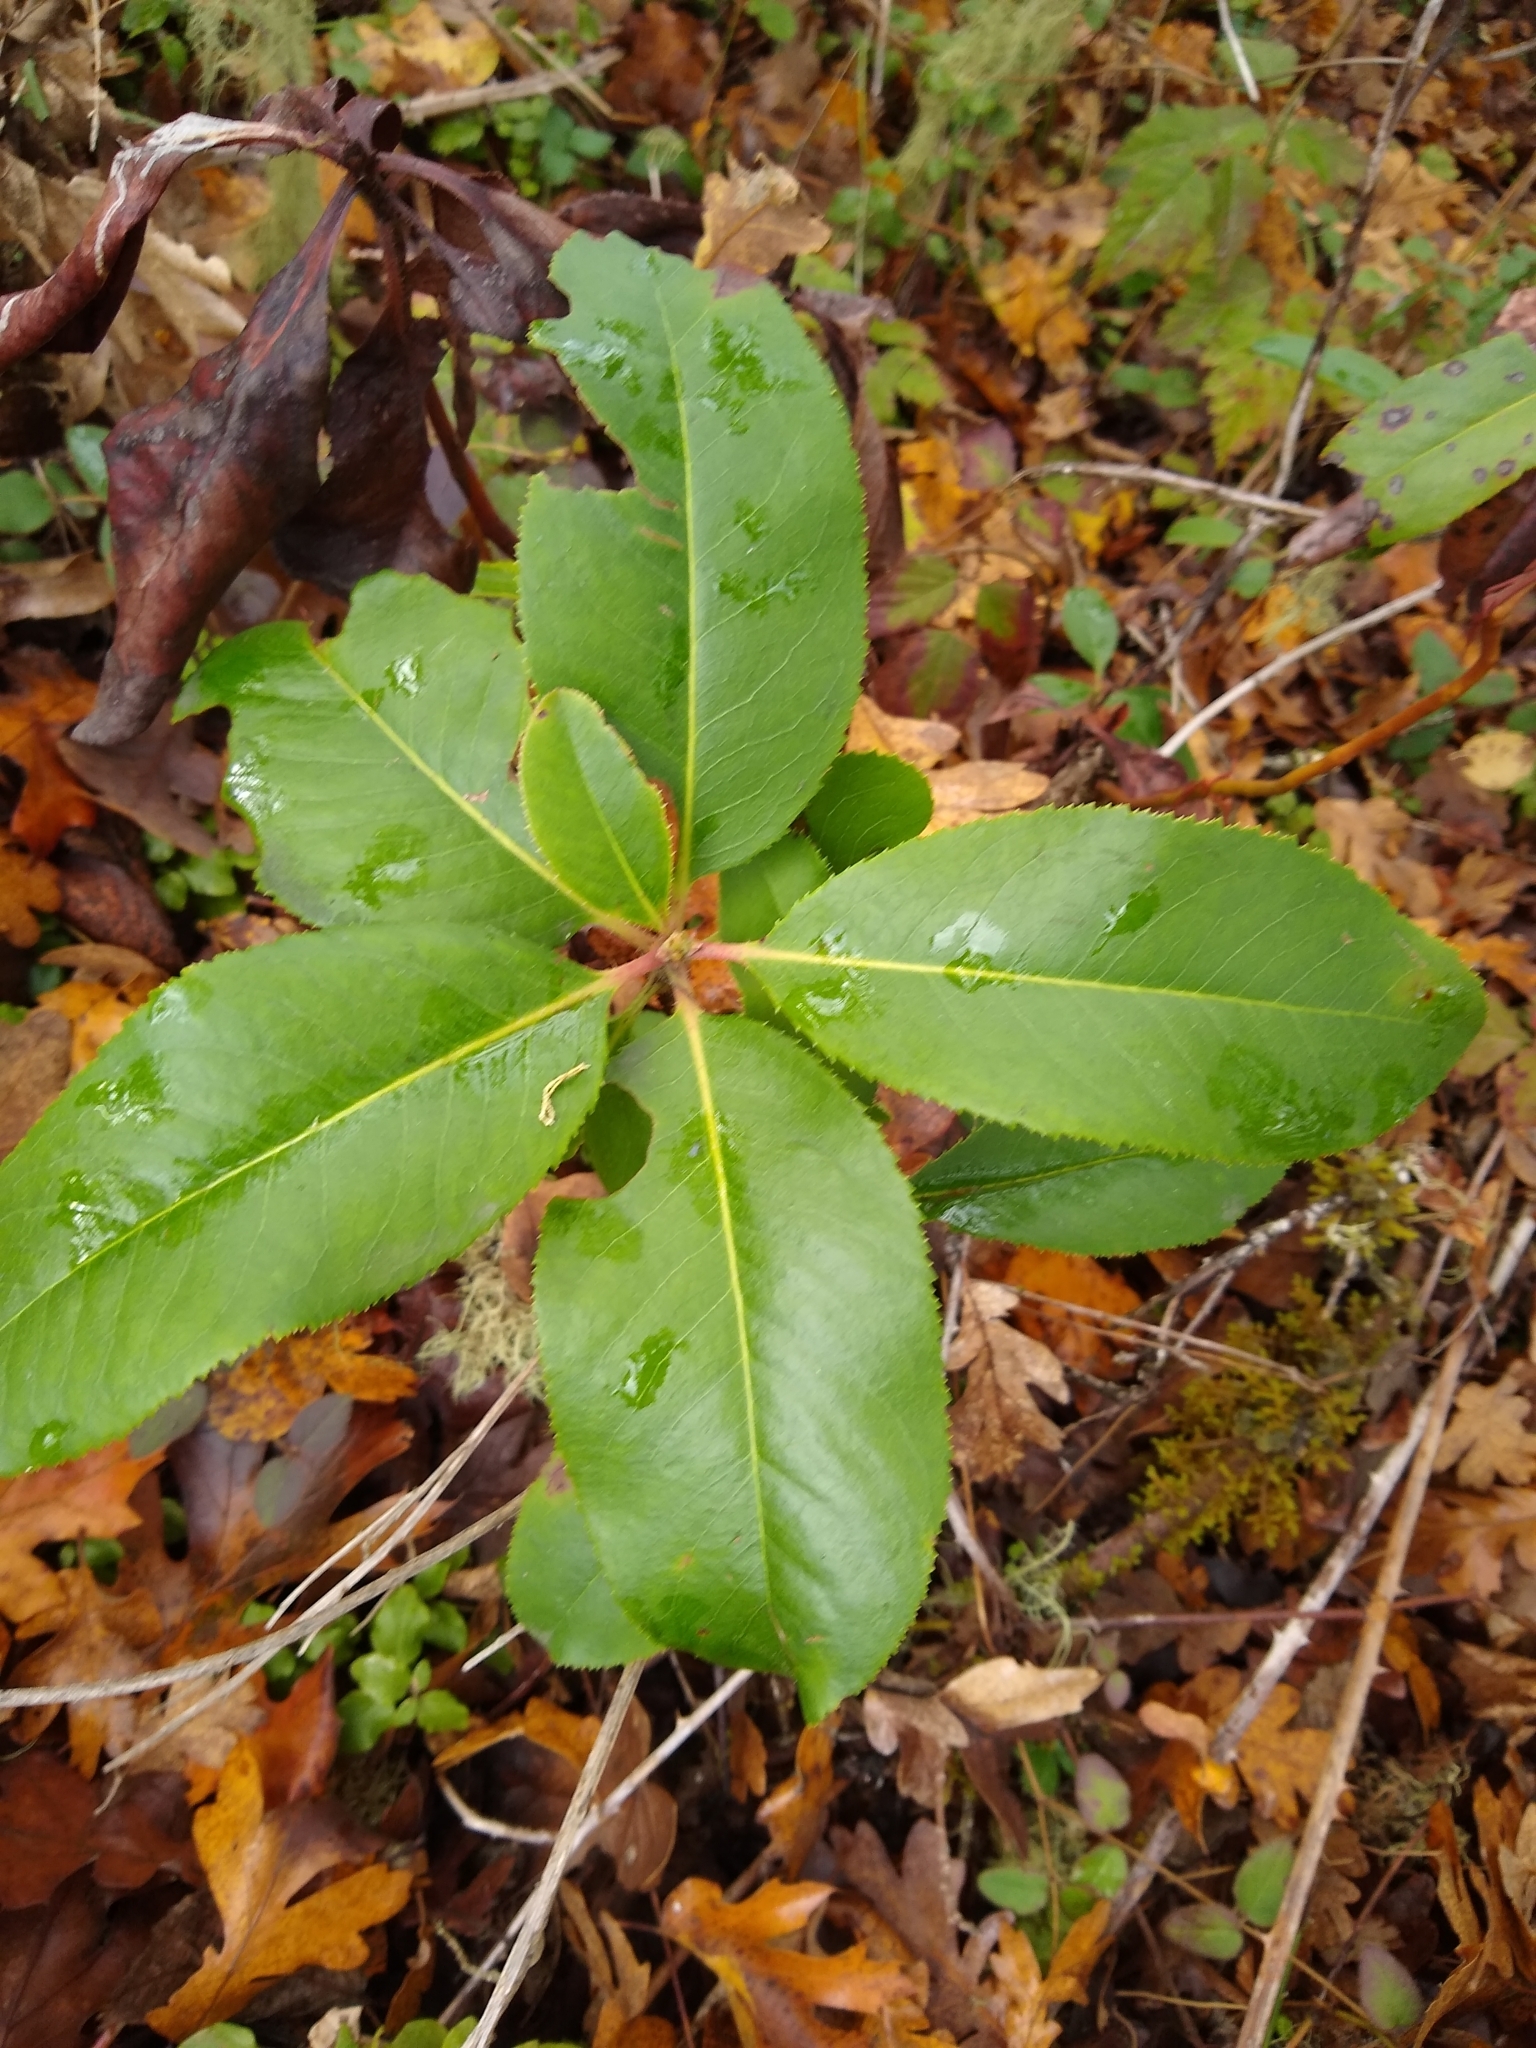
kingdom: Plantae
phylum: Tracheophyta
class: Magnoliopsida
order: Ericales
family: Ericaceae
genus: Arbutus
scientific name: Arbutus menziesii
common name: Pacific madrone
